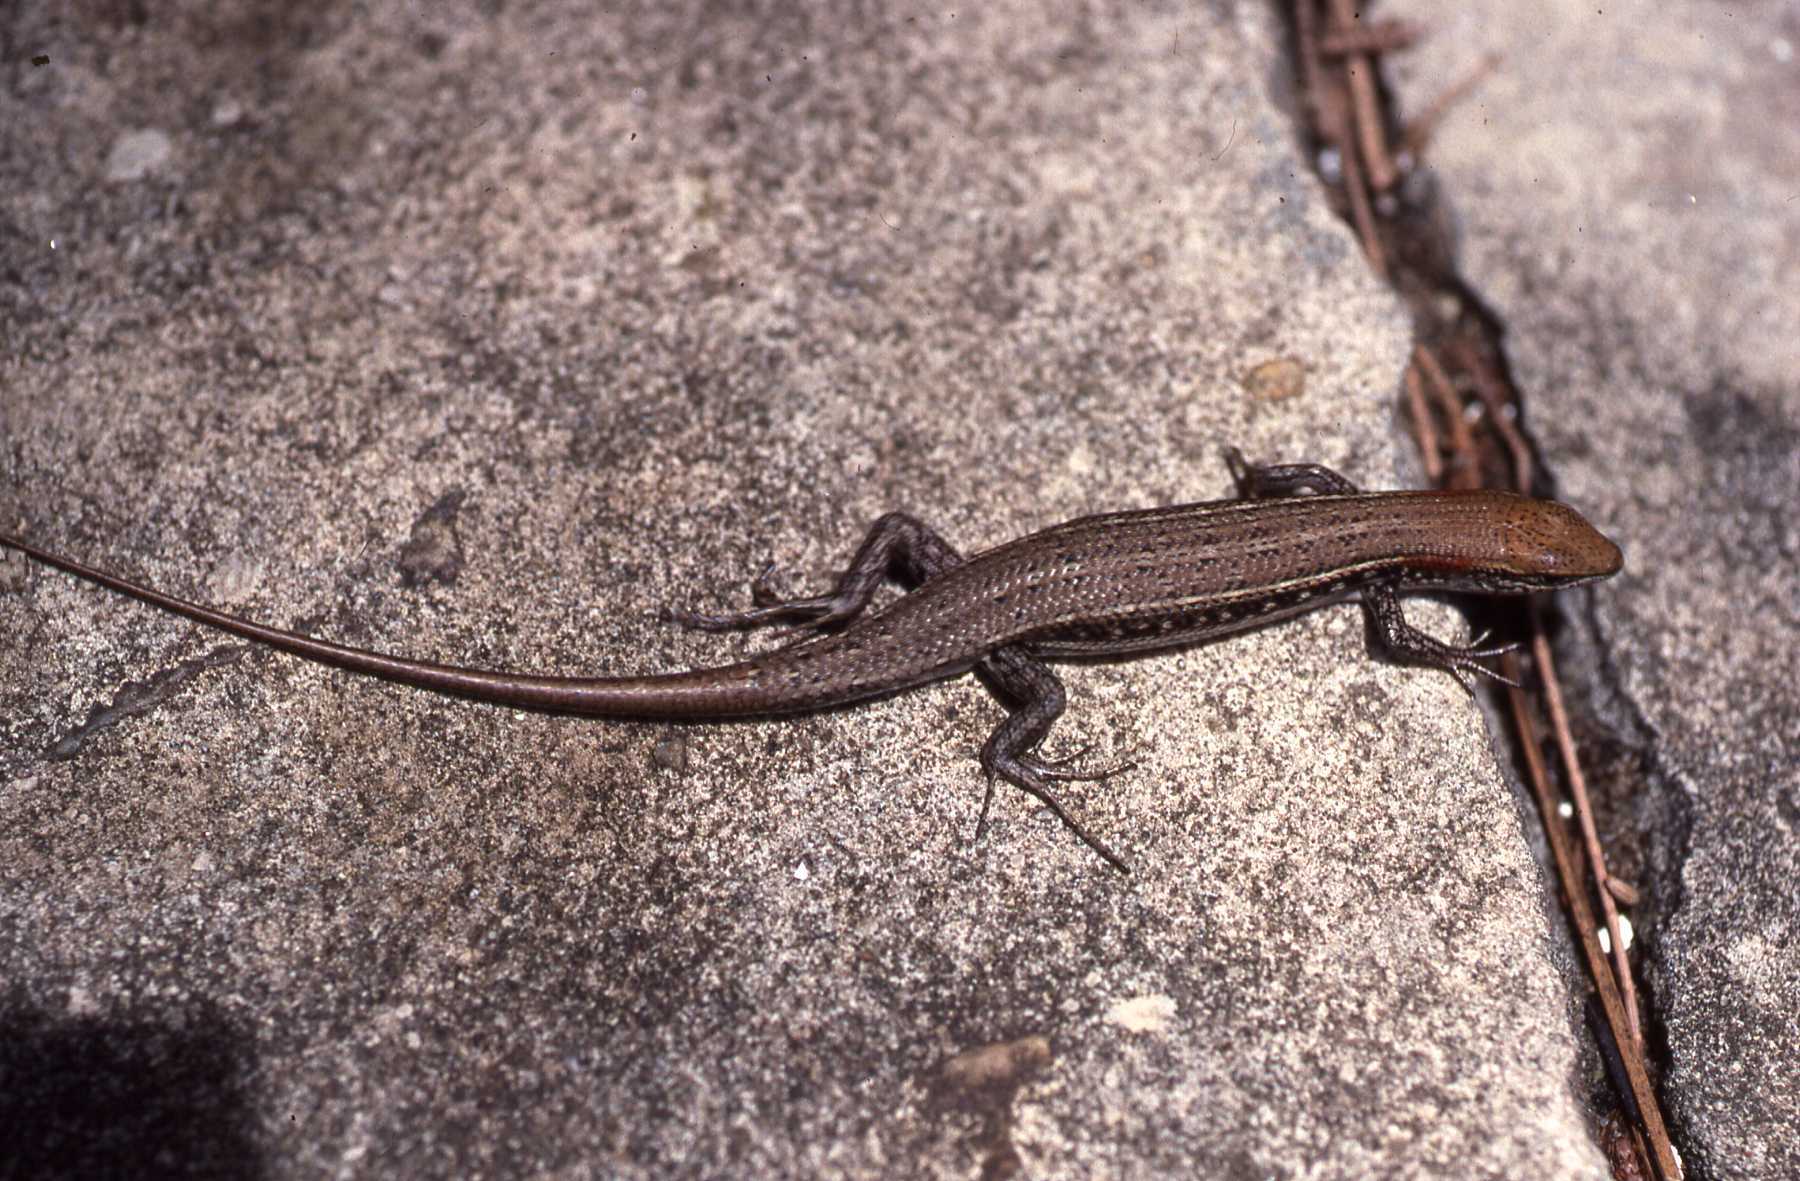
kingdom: Animalia
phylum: Chordata
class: Squamata
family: Scincidae
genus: Trachylepis
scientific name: Trachylepis elegans
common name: Elegant mabuya
